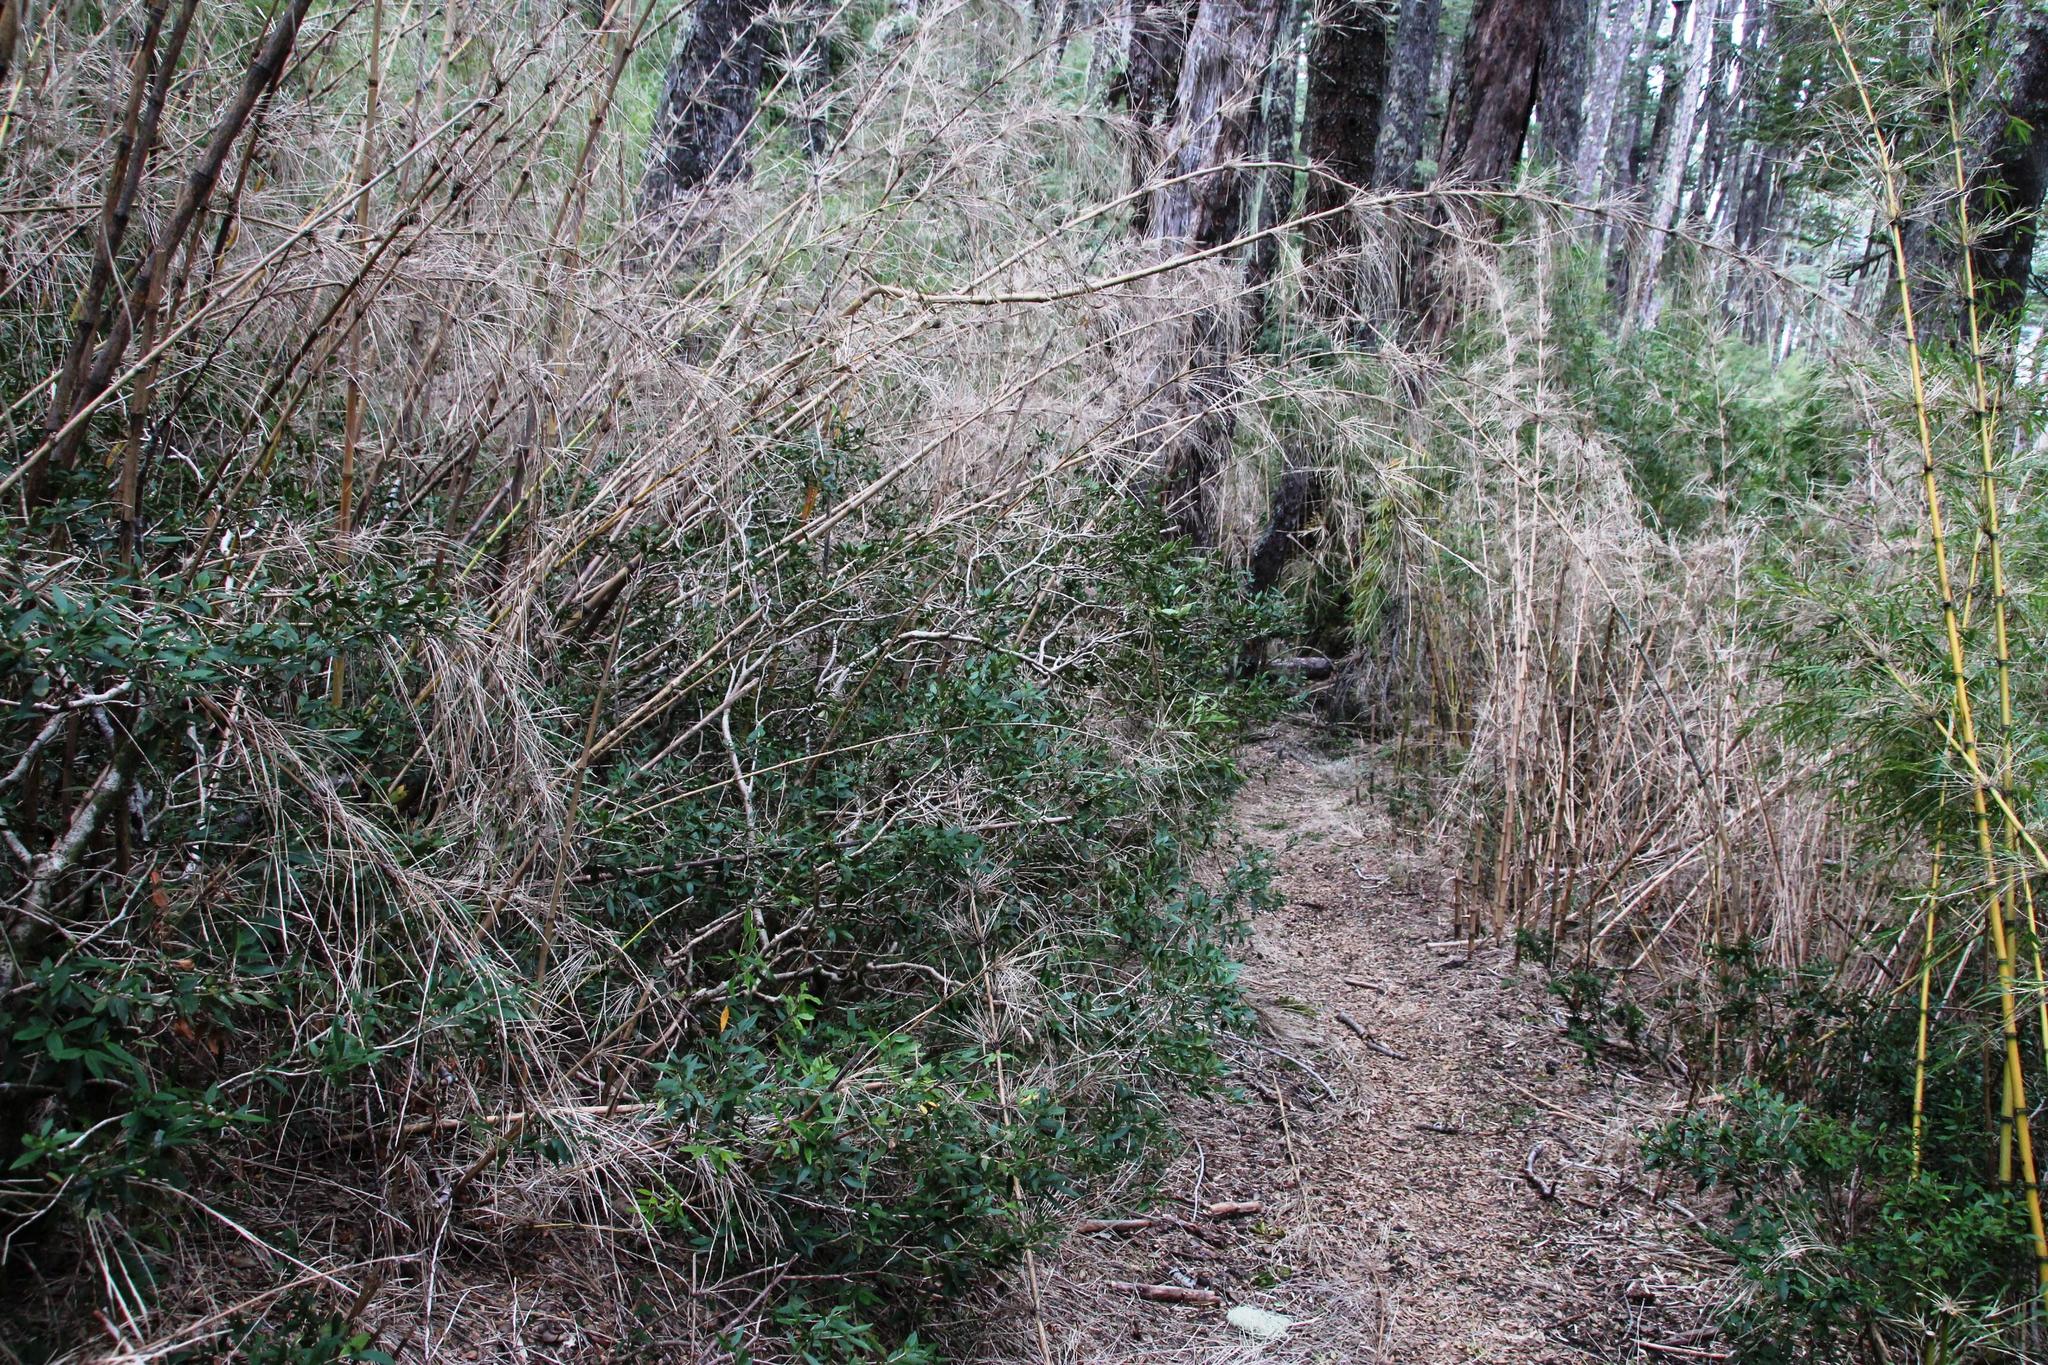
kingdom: Plantae
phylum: Tracheophyta
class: Magnoliopsida
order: Myrtales
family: Myrtaceae
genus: Myrceugenia
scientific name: Myrceugenia chrysocarpa
